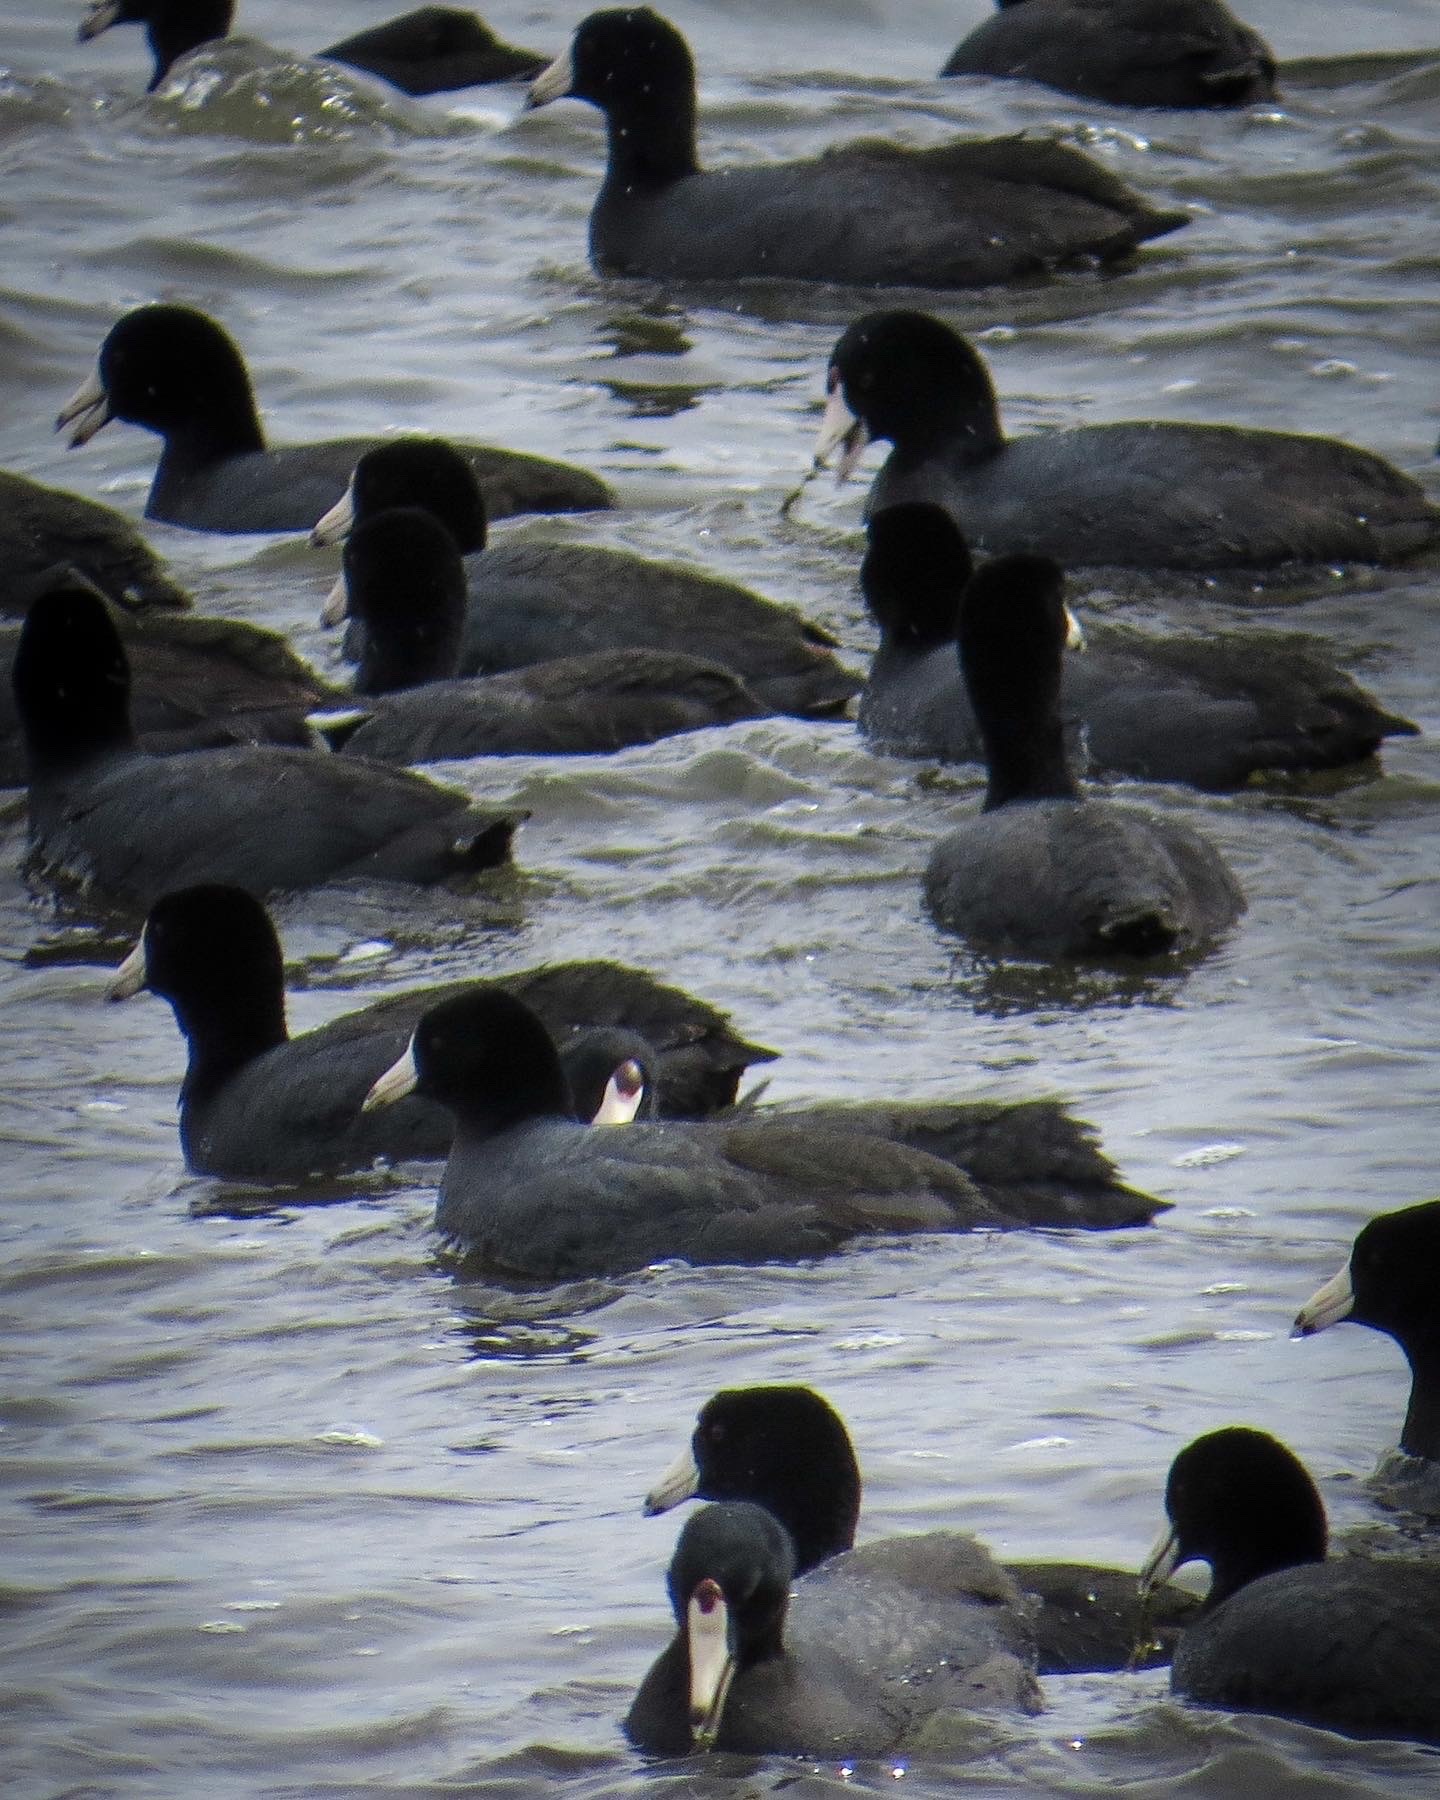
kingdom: Animalia
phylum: Chordata
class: Aves
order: Gruiformes
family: Rallidae
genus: Fulica
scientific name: Fulica americana
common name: American coot
